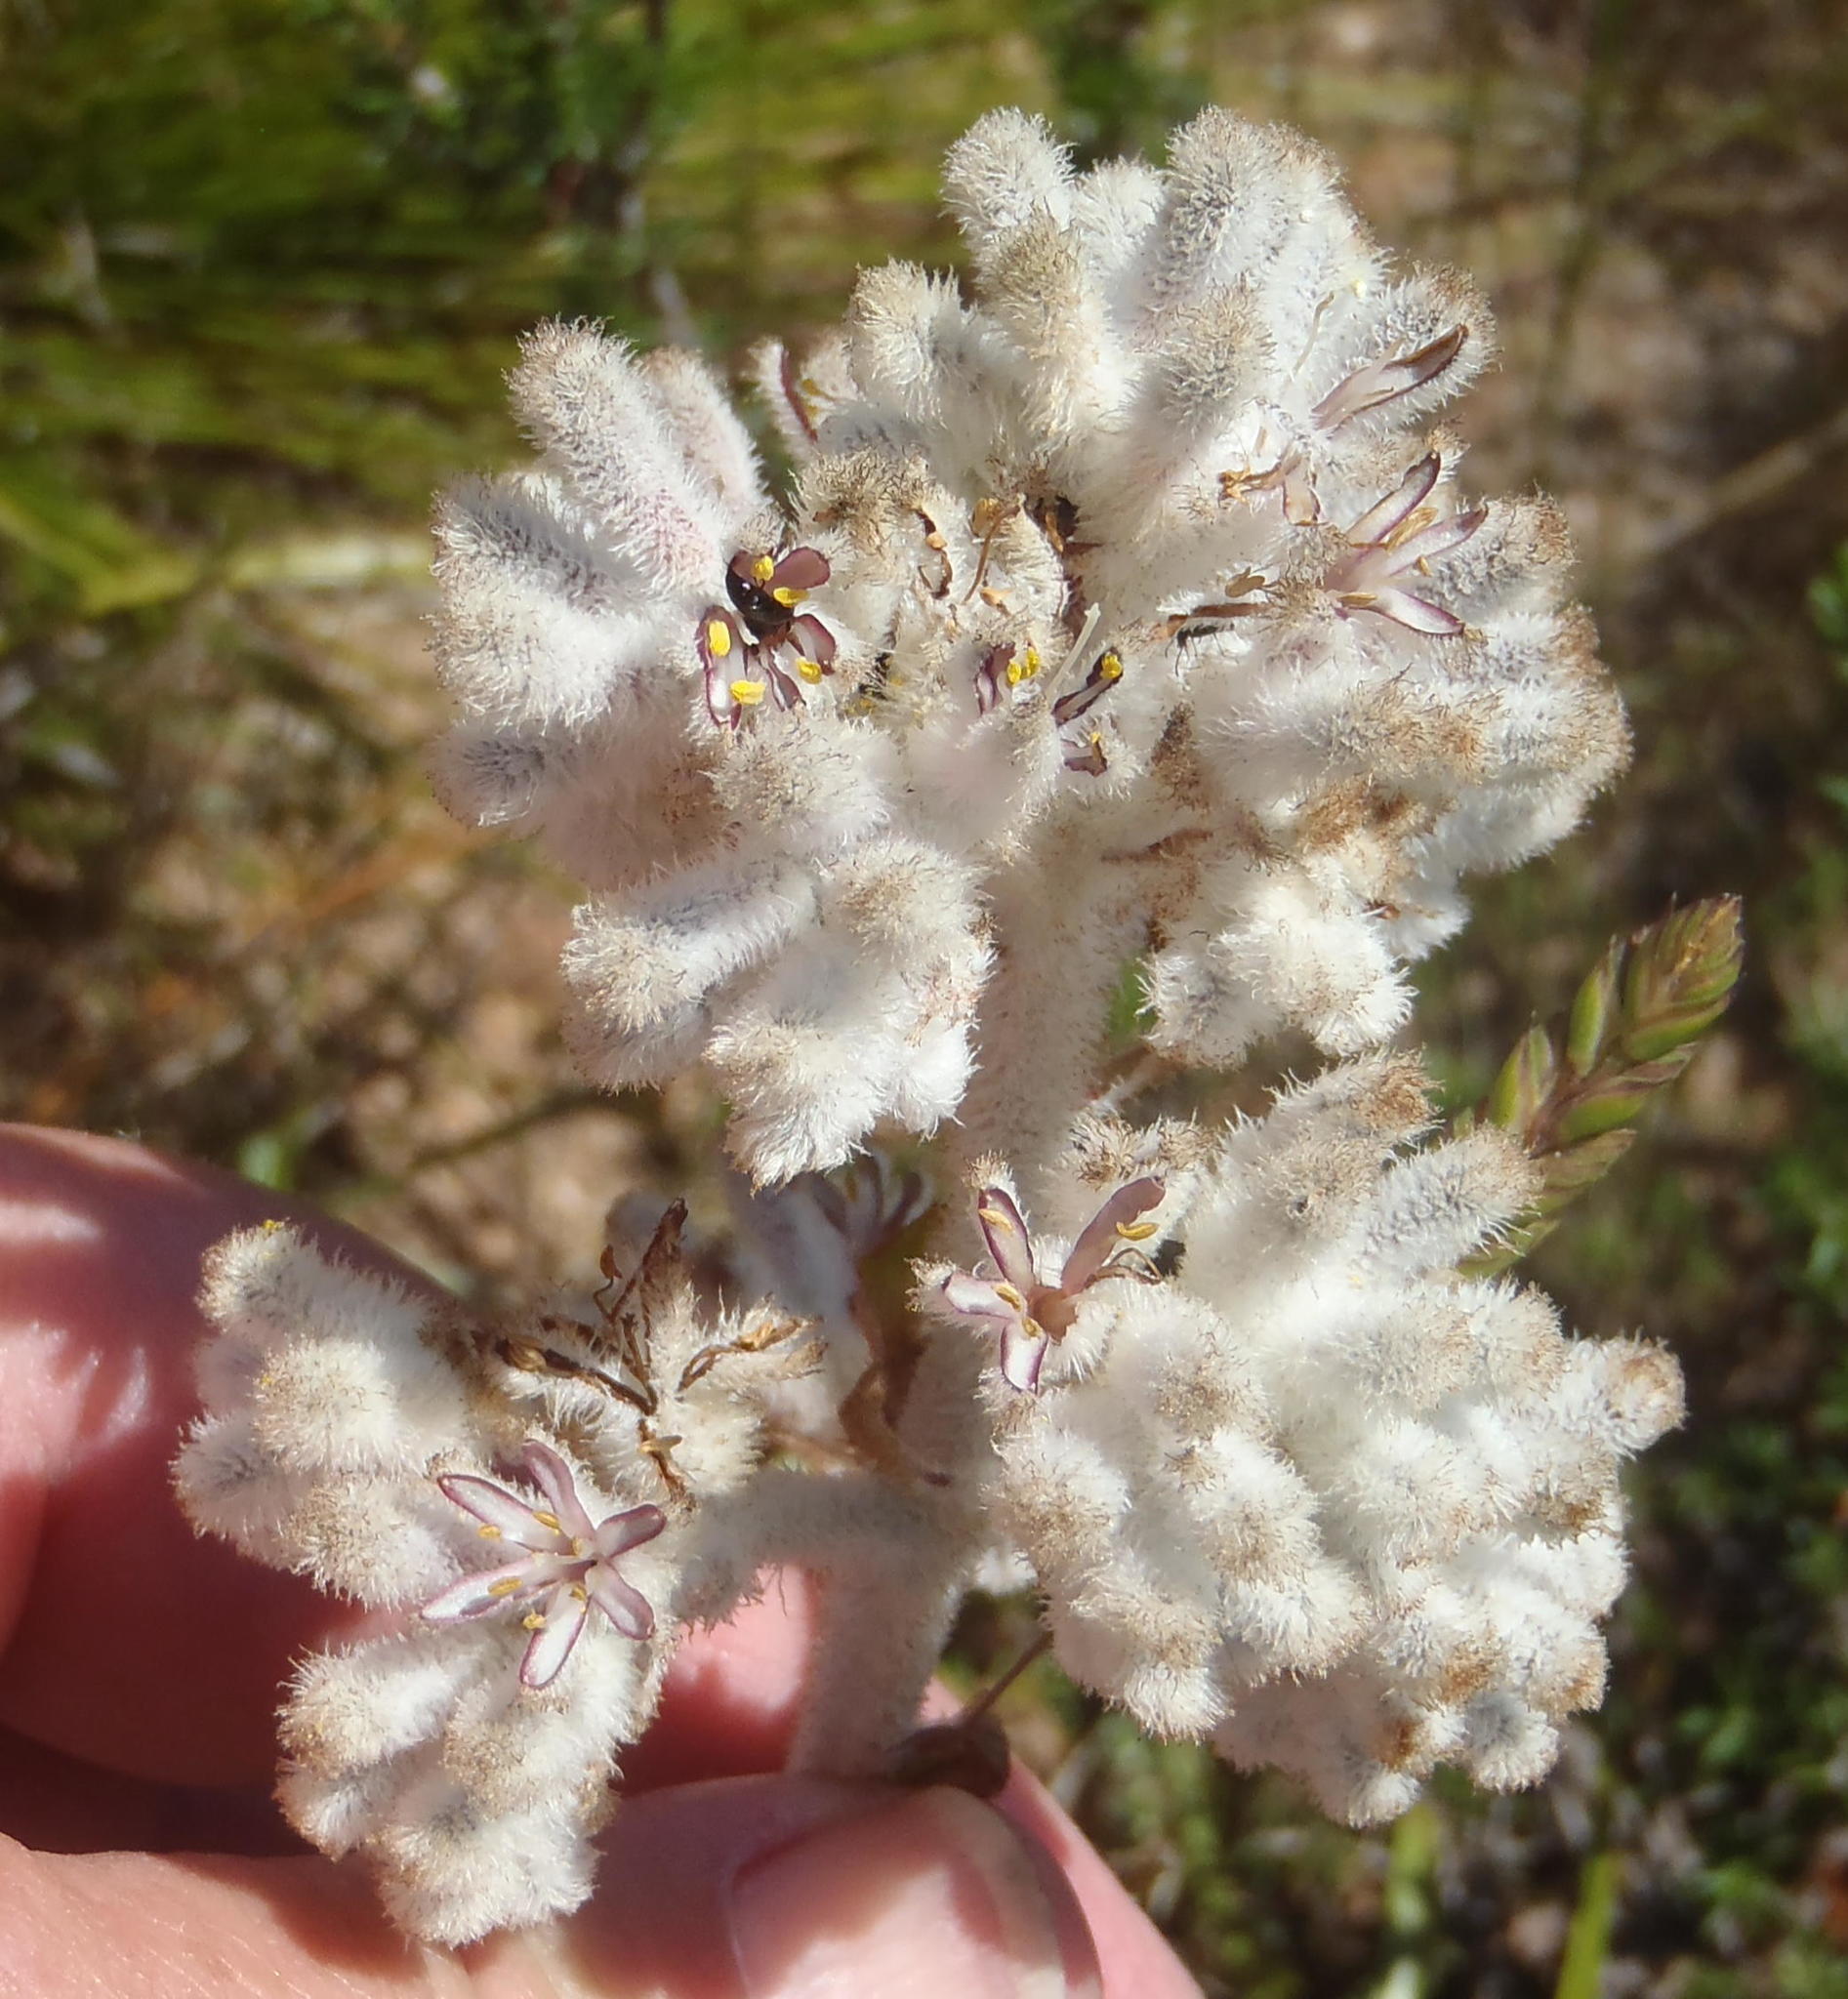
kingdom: Plantae
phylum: Tracheophyta
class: Liliopsida
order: Asparagales
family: Lanariaceae
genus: Lanaria
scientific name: Lanaria lanata
